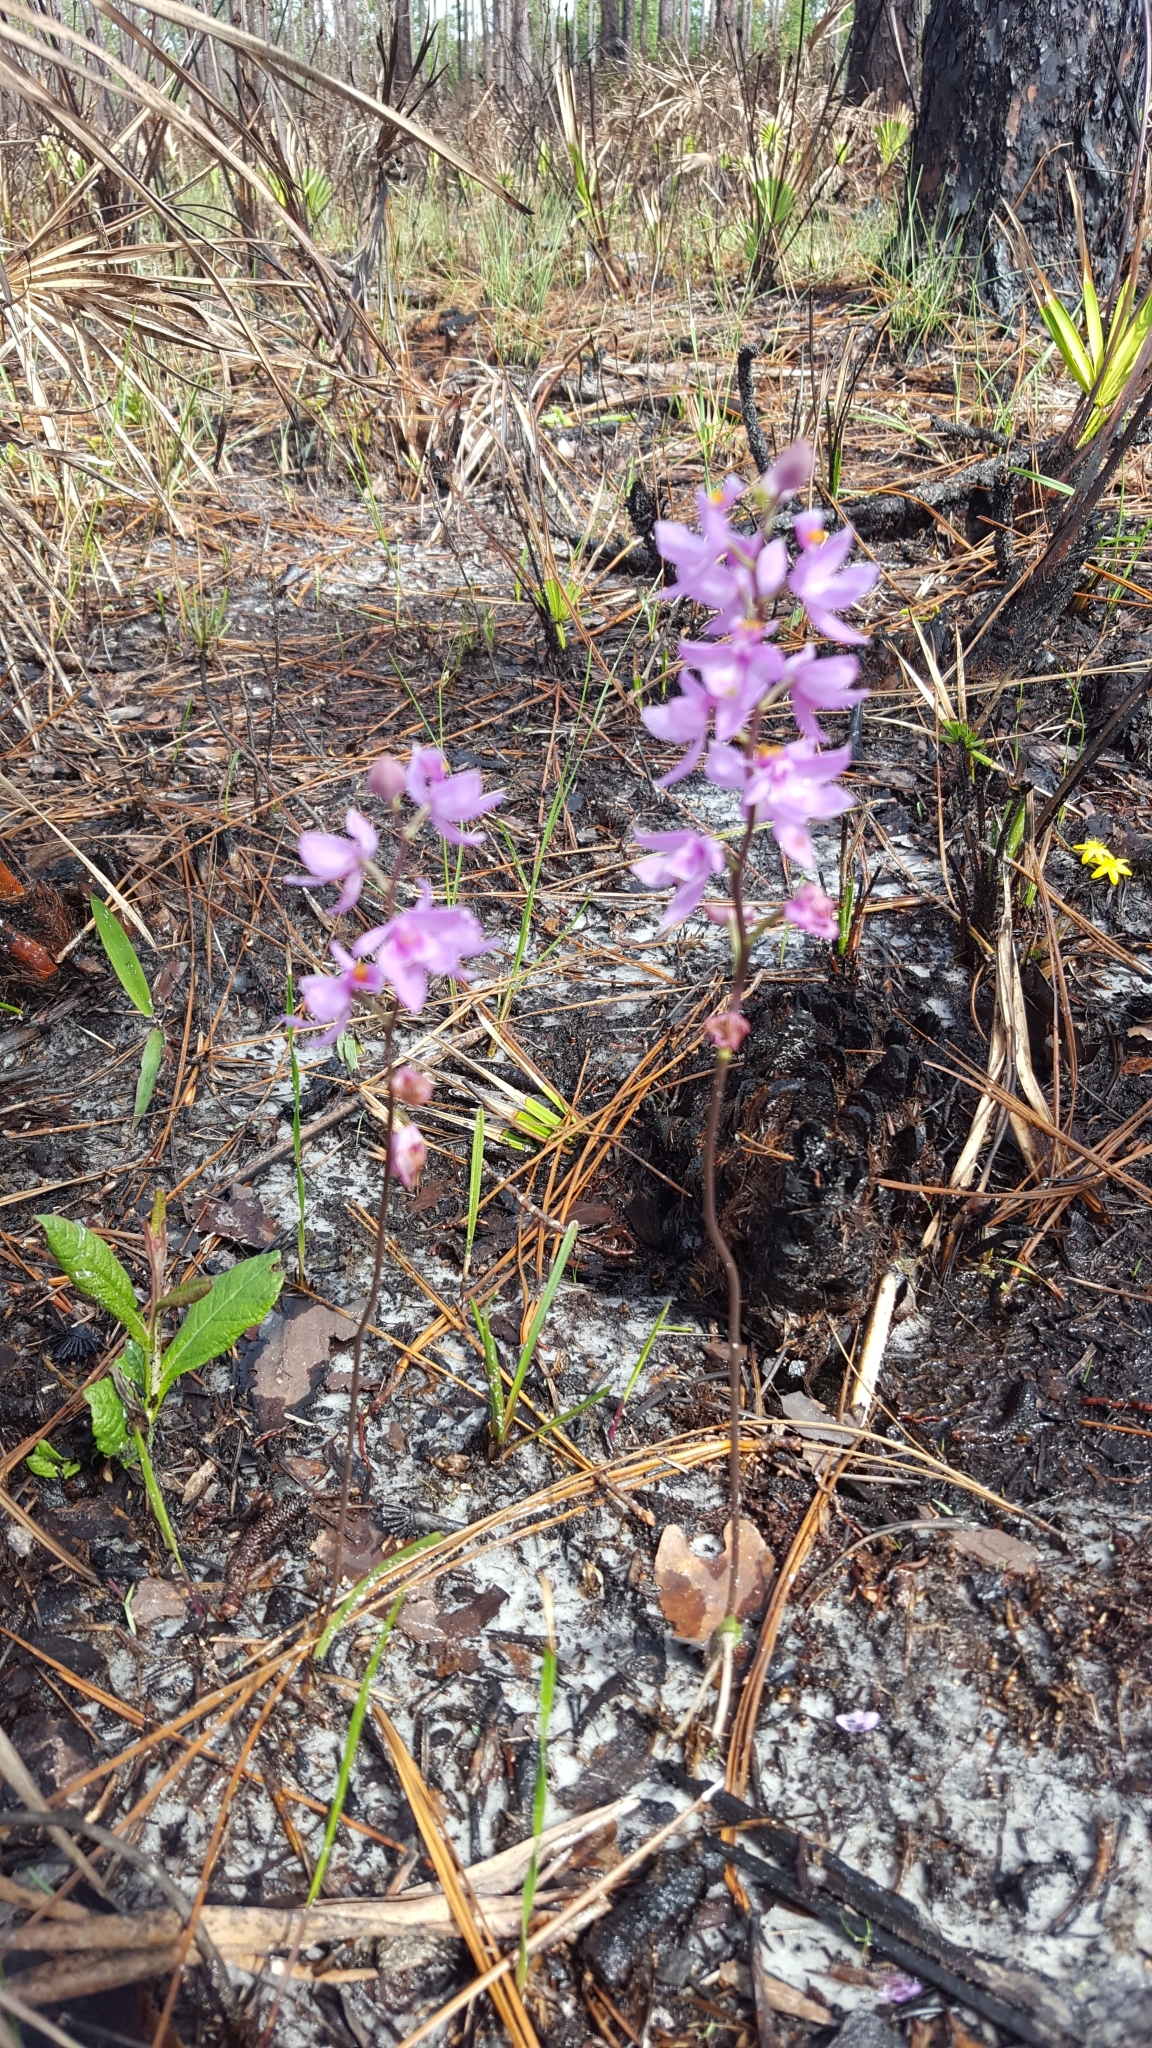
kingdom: Plantae
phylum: Tracheophyta
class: Liliopsida
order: Asparagales
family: Orchidaceae
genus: Calopogon
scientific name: Calopogon multiflorus
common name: Many-flowered grass-pink orchid
